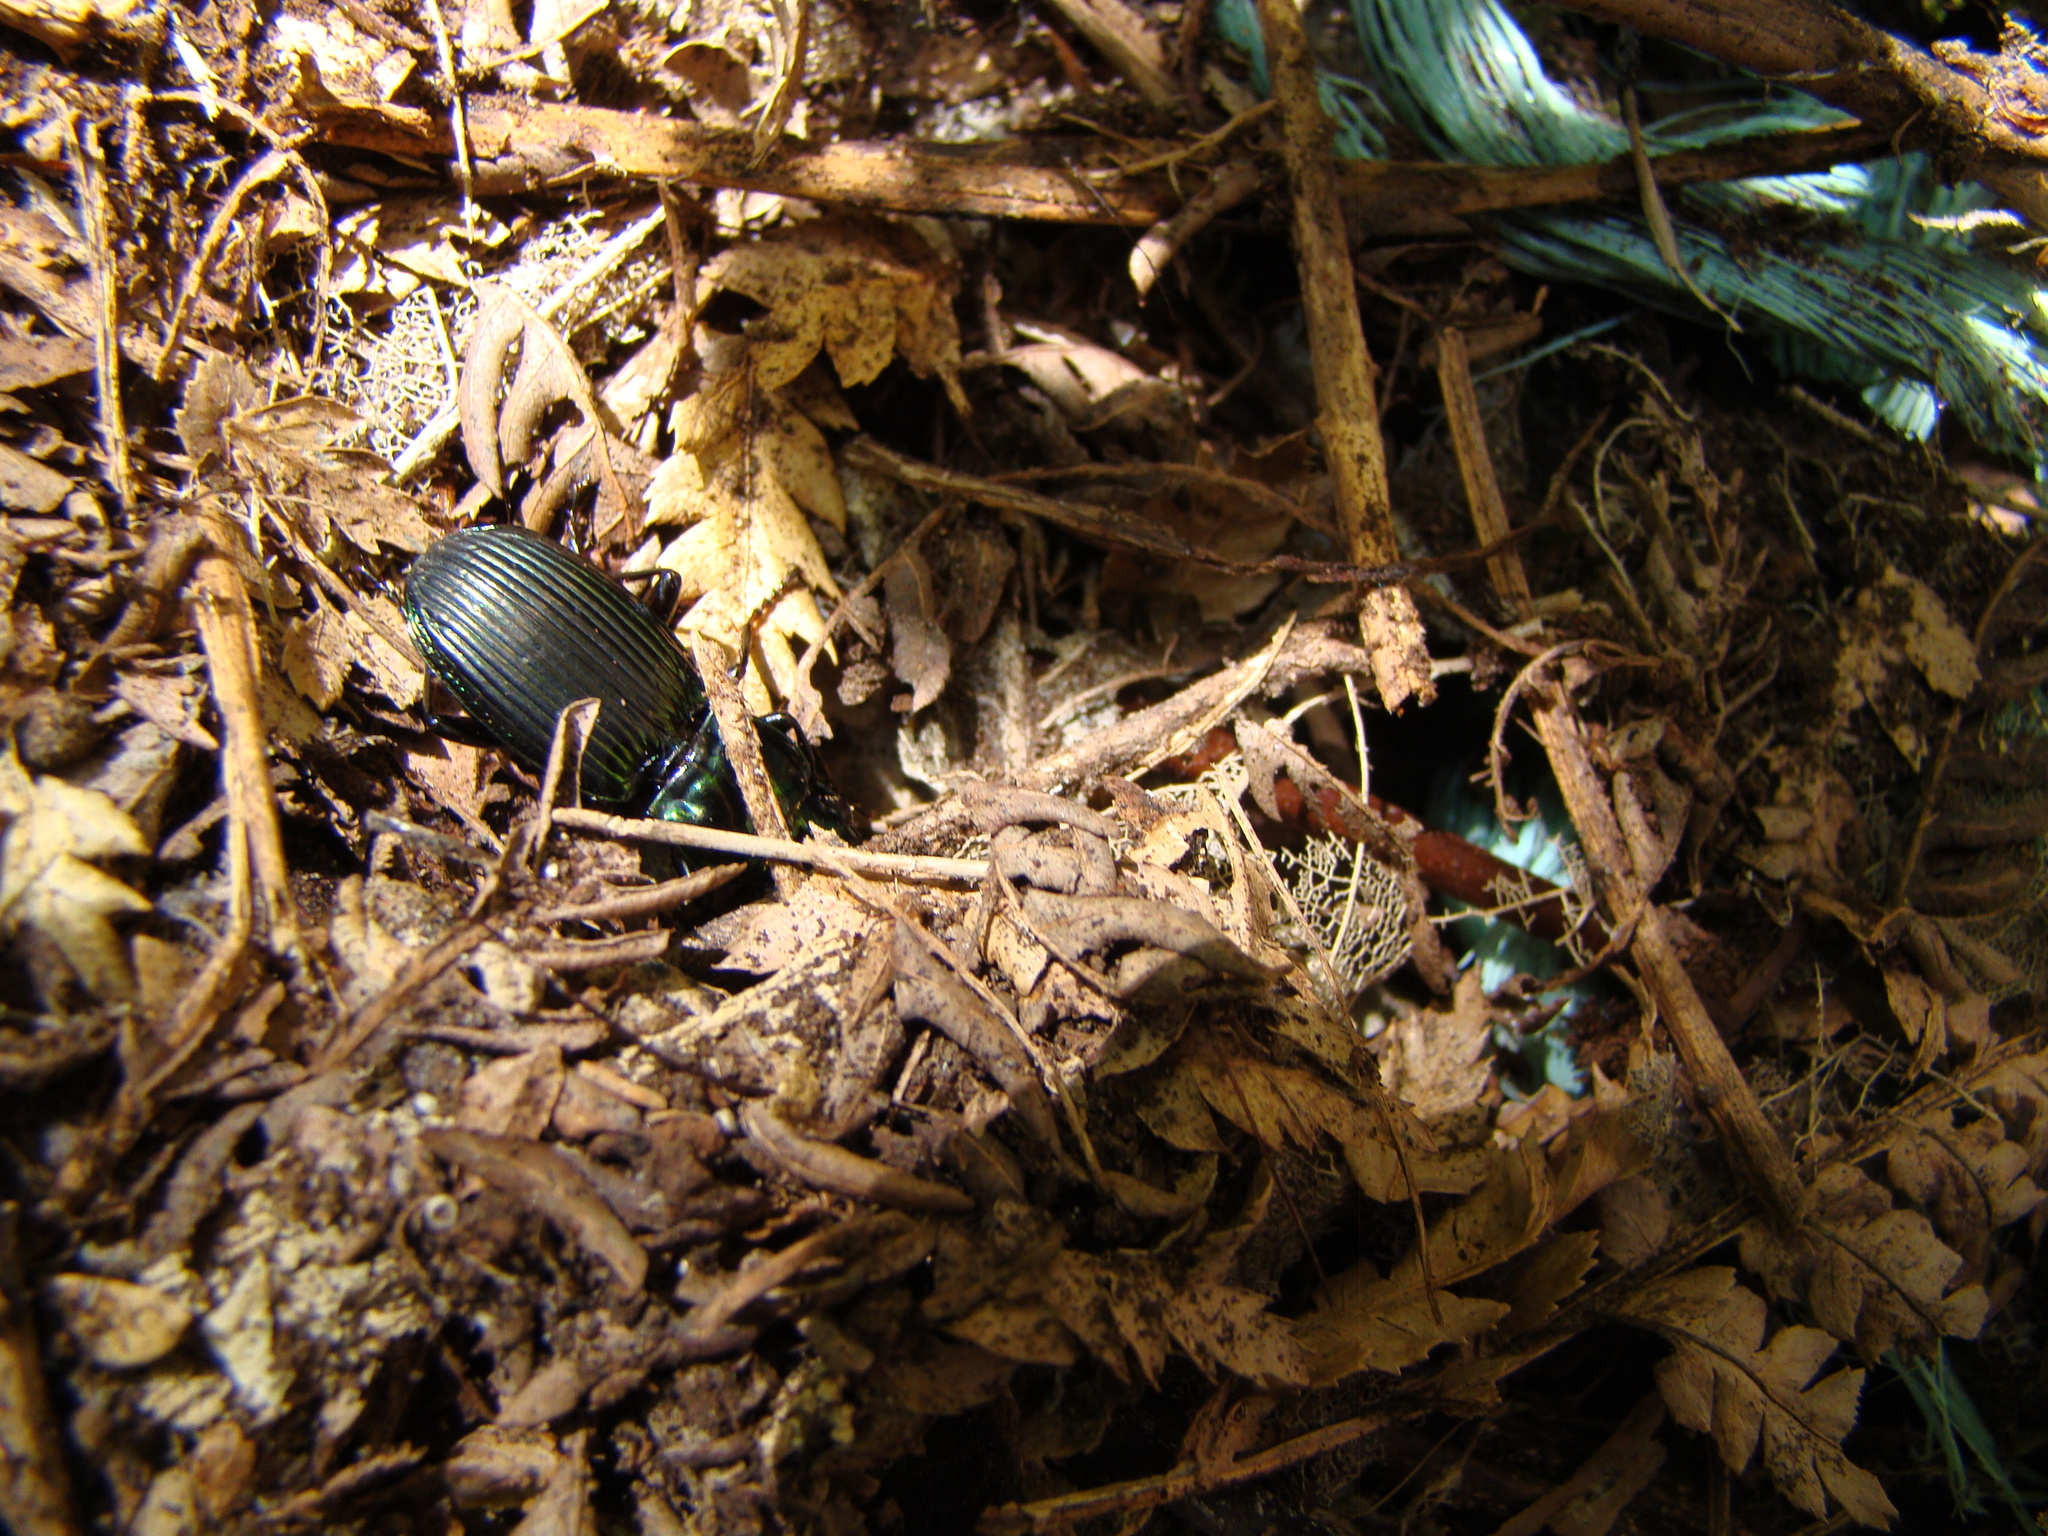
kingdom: Animalia
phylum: Arthropoda
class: Insecta
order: Coleoptera
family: Carabidae
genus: Megadromus
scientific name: Megadromus capito
